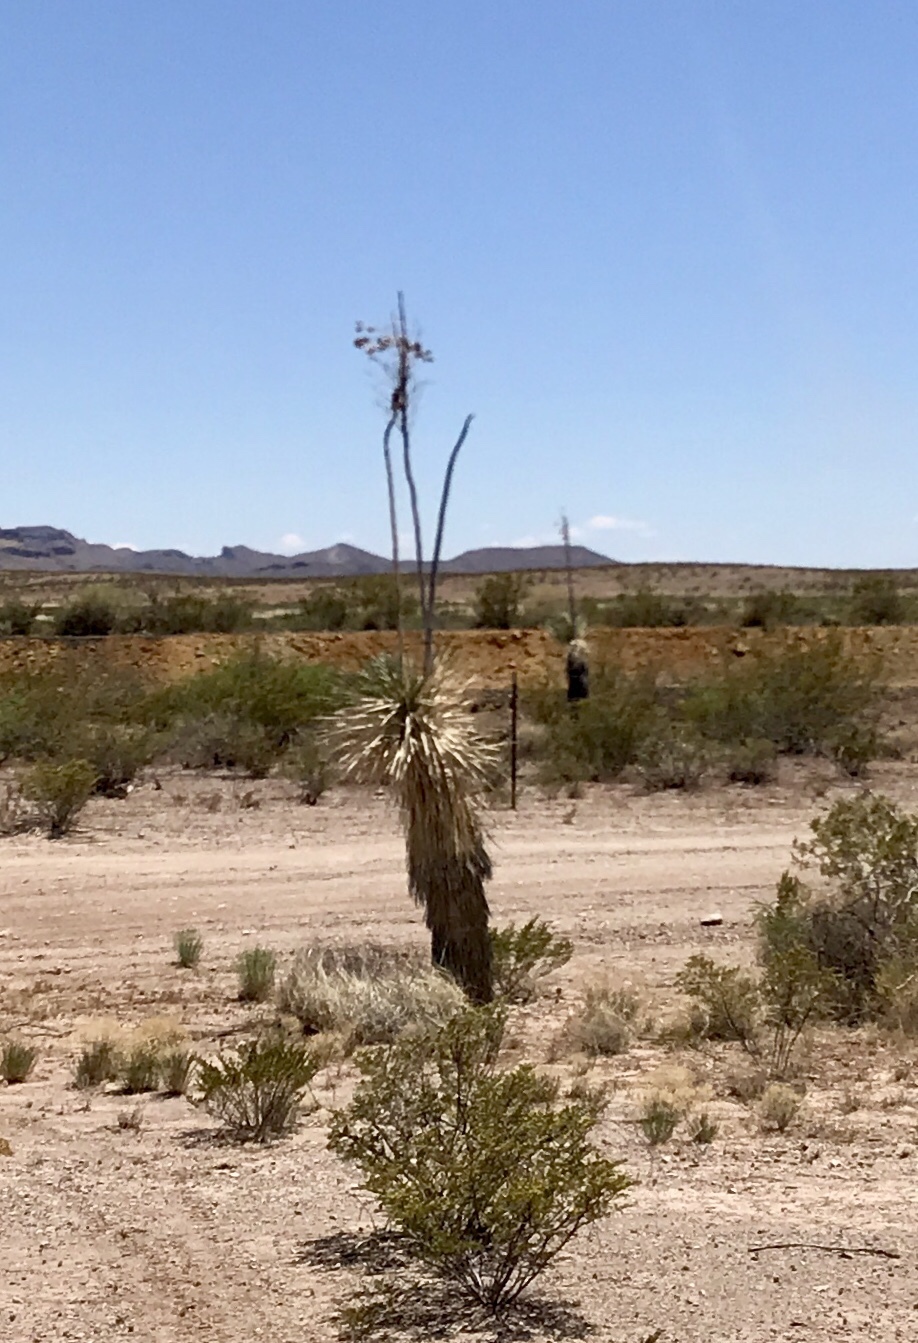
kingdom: Plantae
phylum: Tracheophyta
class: Liliopsida
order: Asparagales
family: Asparagaceae
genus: Yucca
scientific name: Yucca elata
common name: Palmella
